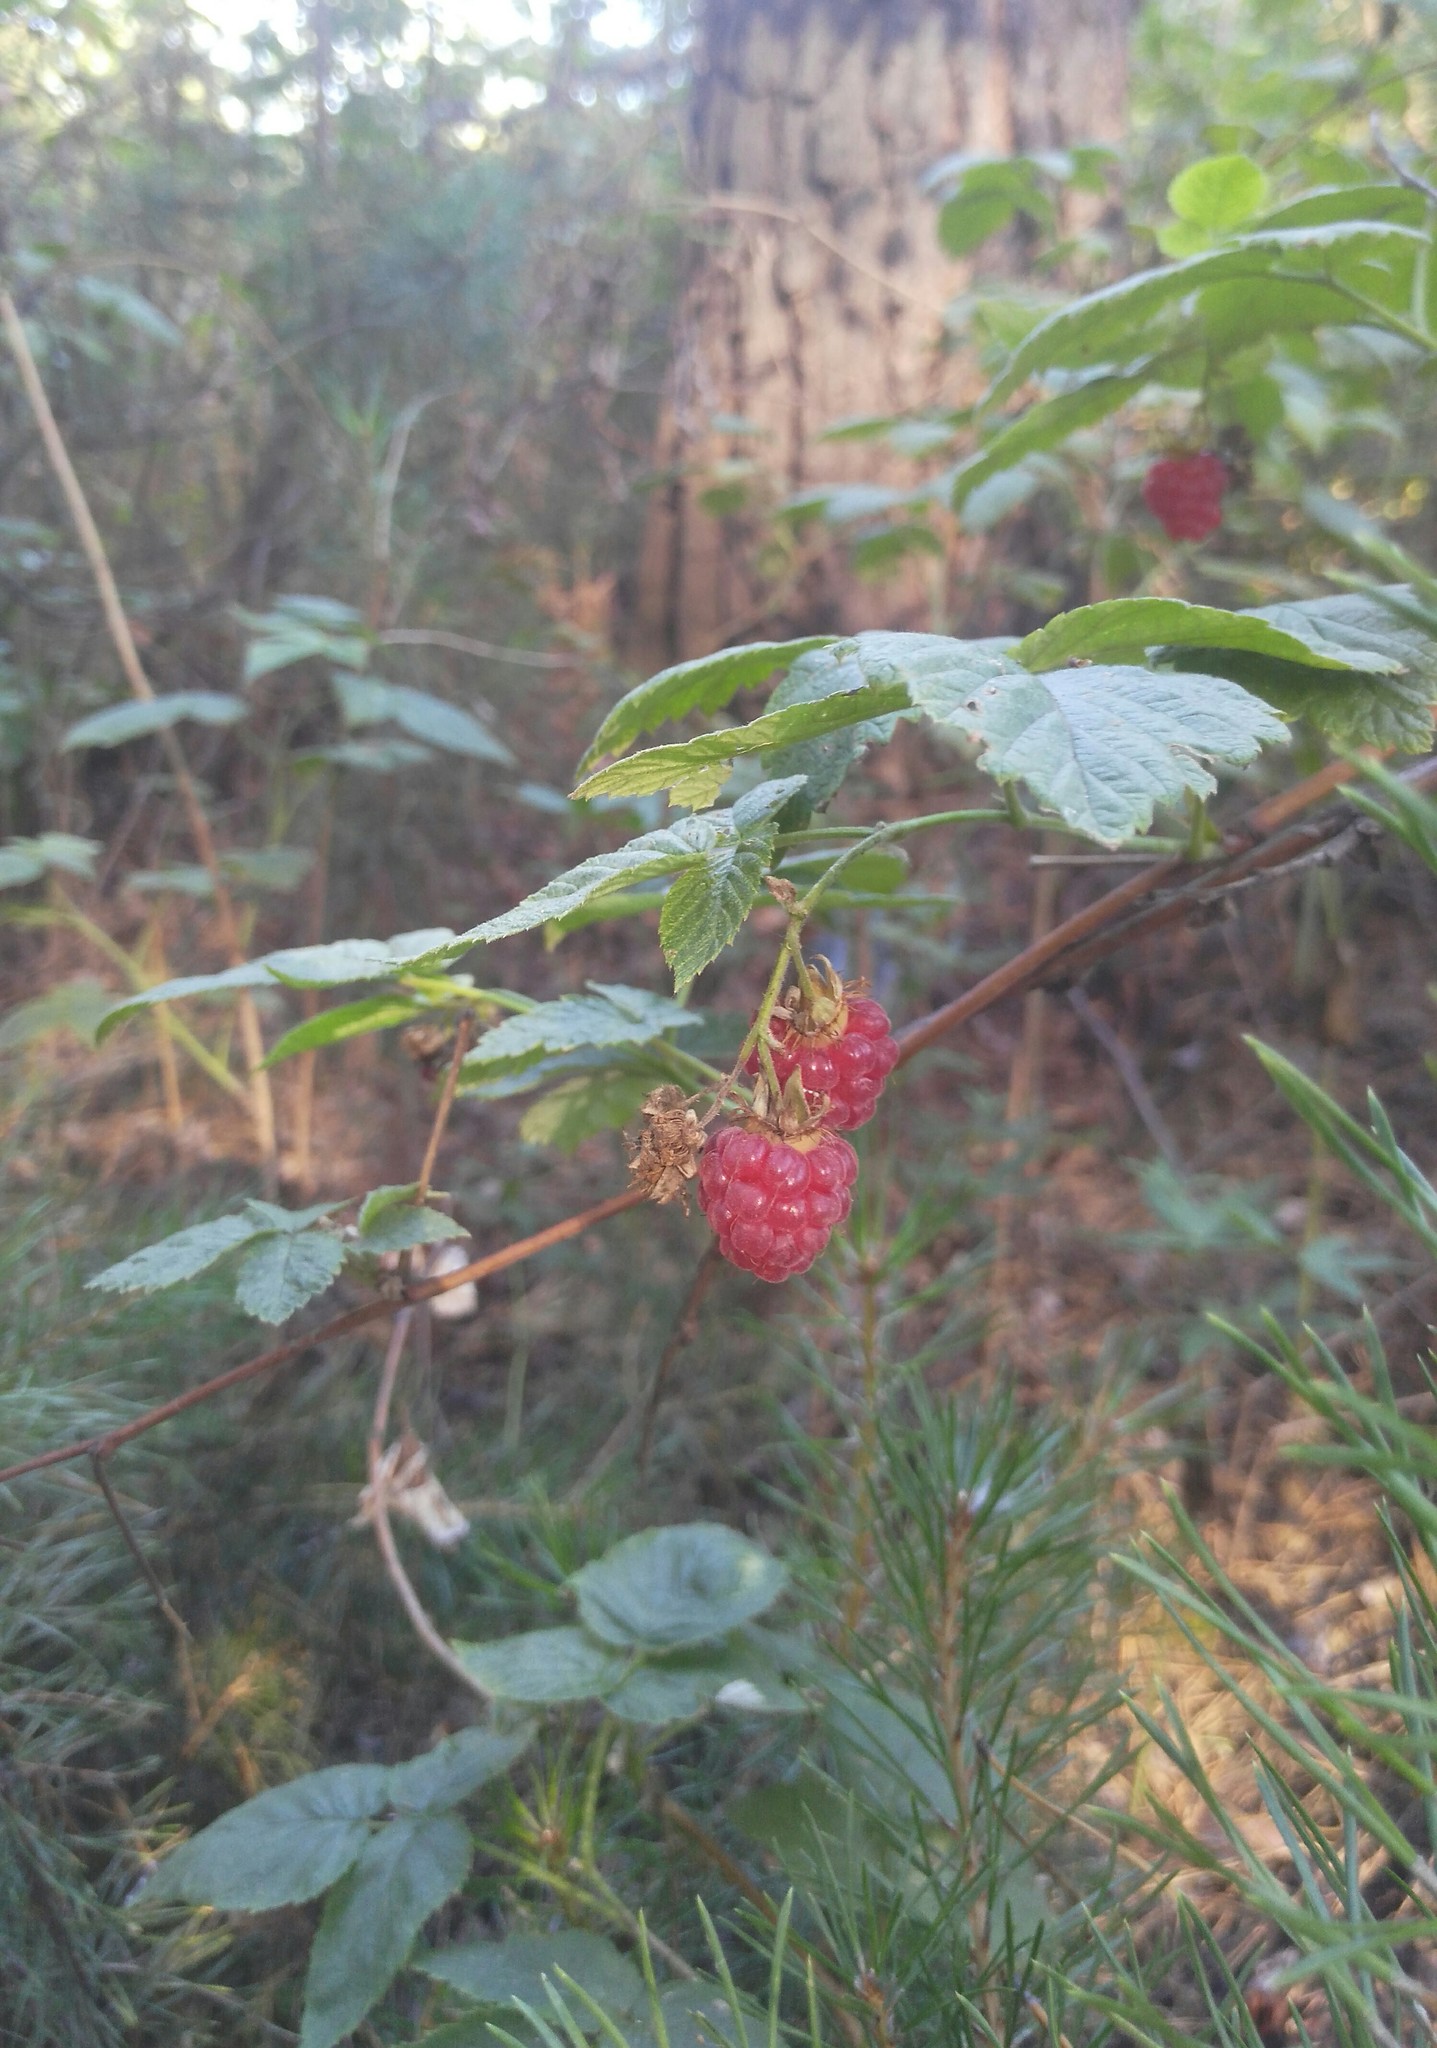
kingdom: Plantae
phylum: Tracheophyta
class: Magnoliopsida
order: Rosales
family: Rosaceae
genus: Rubus
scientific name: Rubus idaeus
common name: Raspberry
